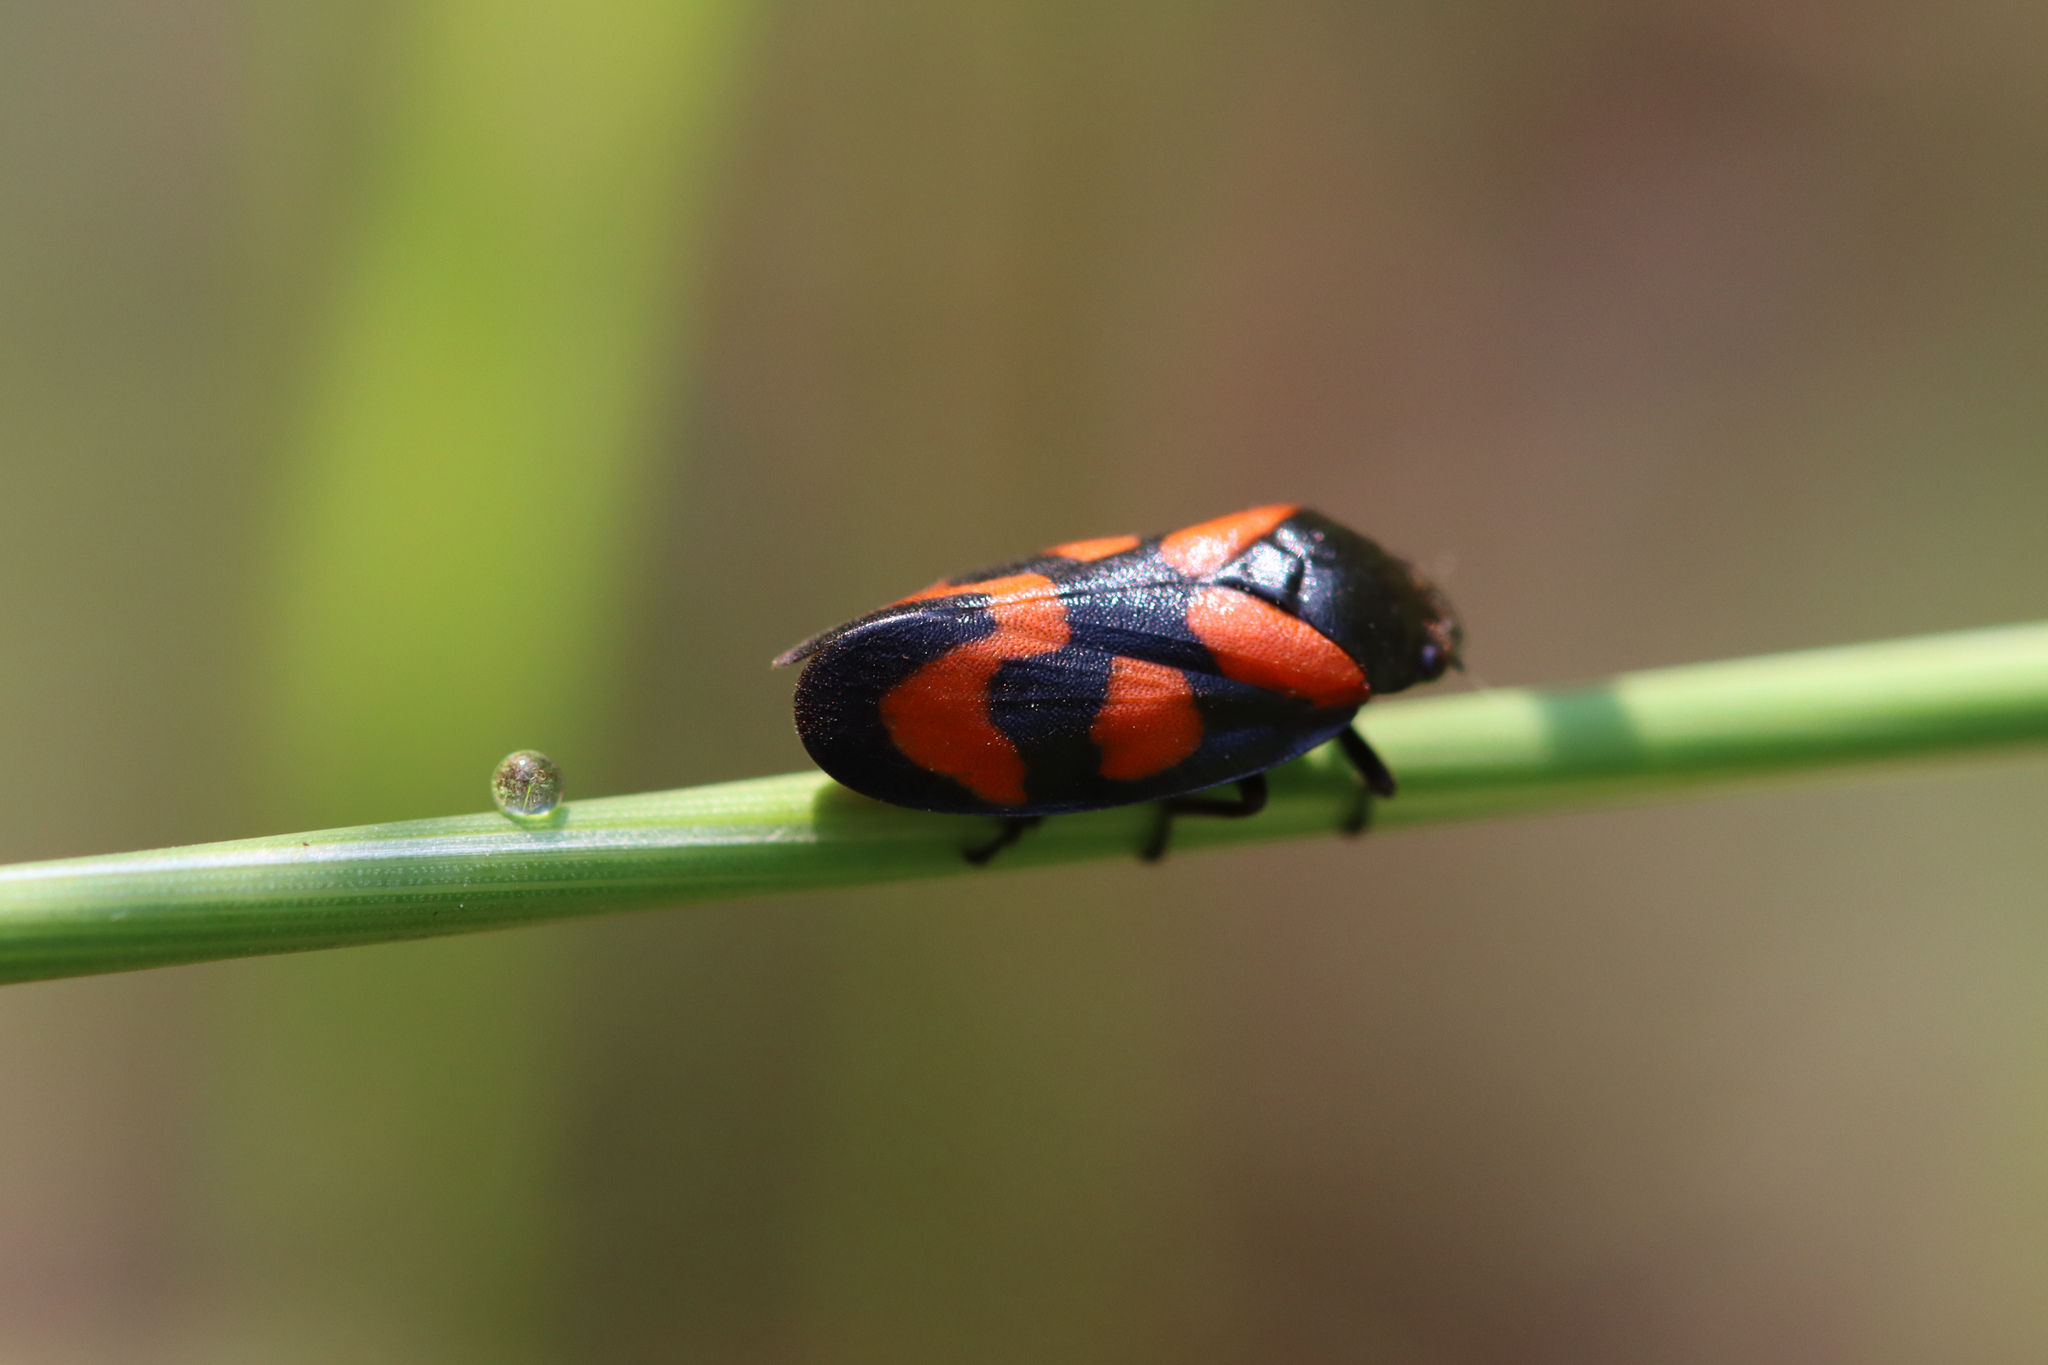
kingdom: Animalia
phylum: Arthropoda
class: Insecta
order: Hemiptera
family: Cercopidae
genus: Cercopis
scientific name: Cercopis vulnerata
